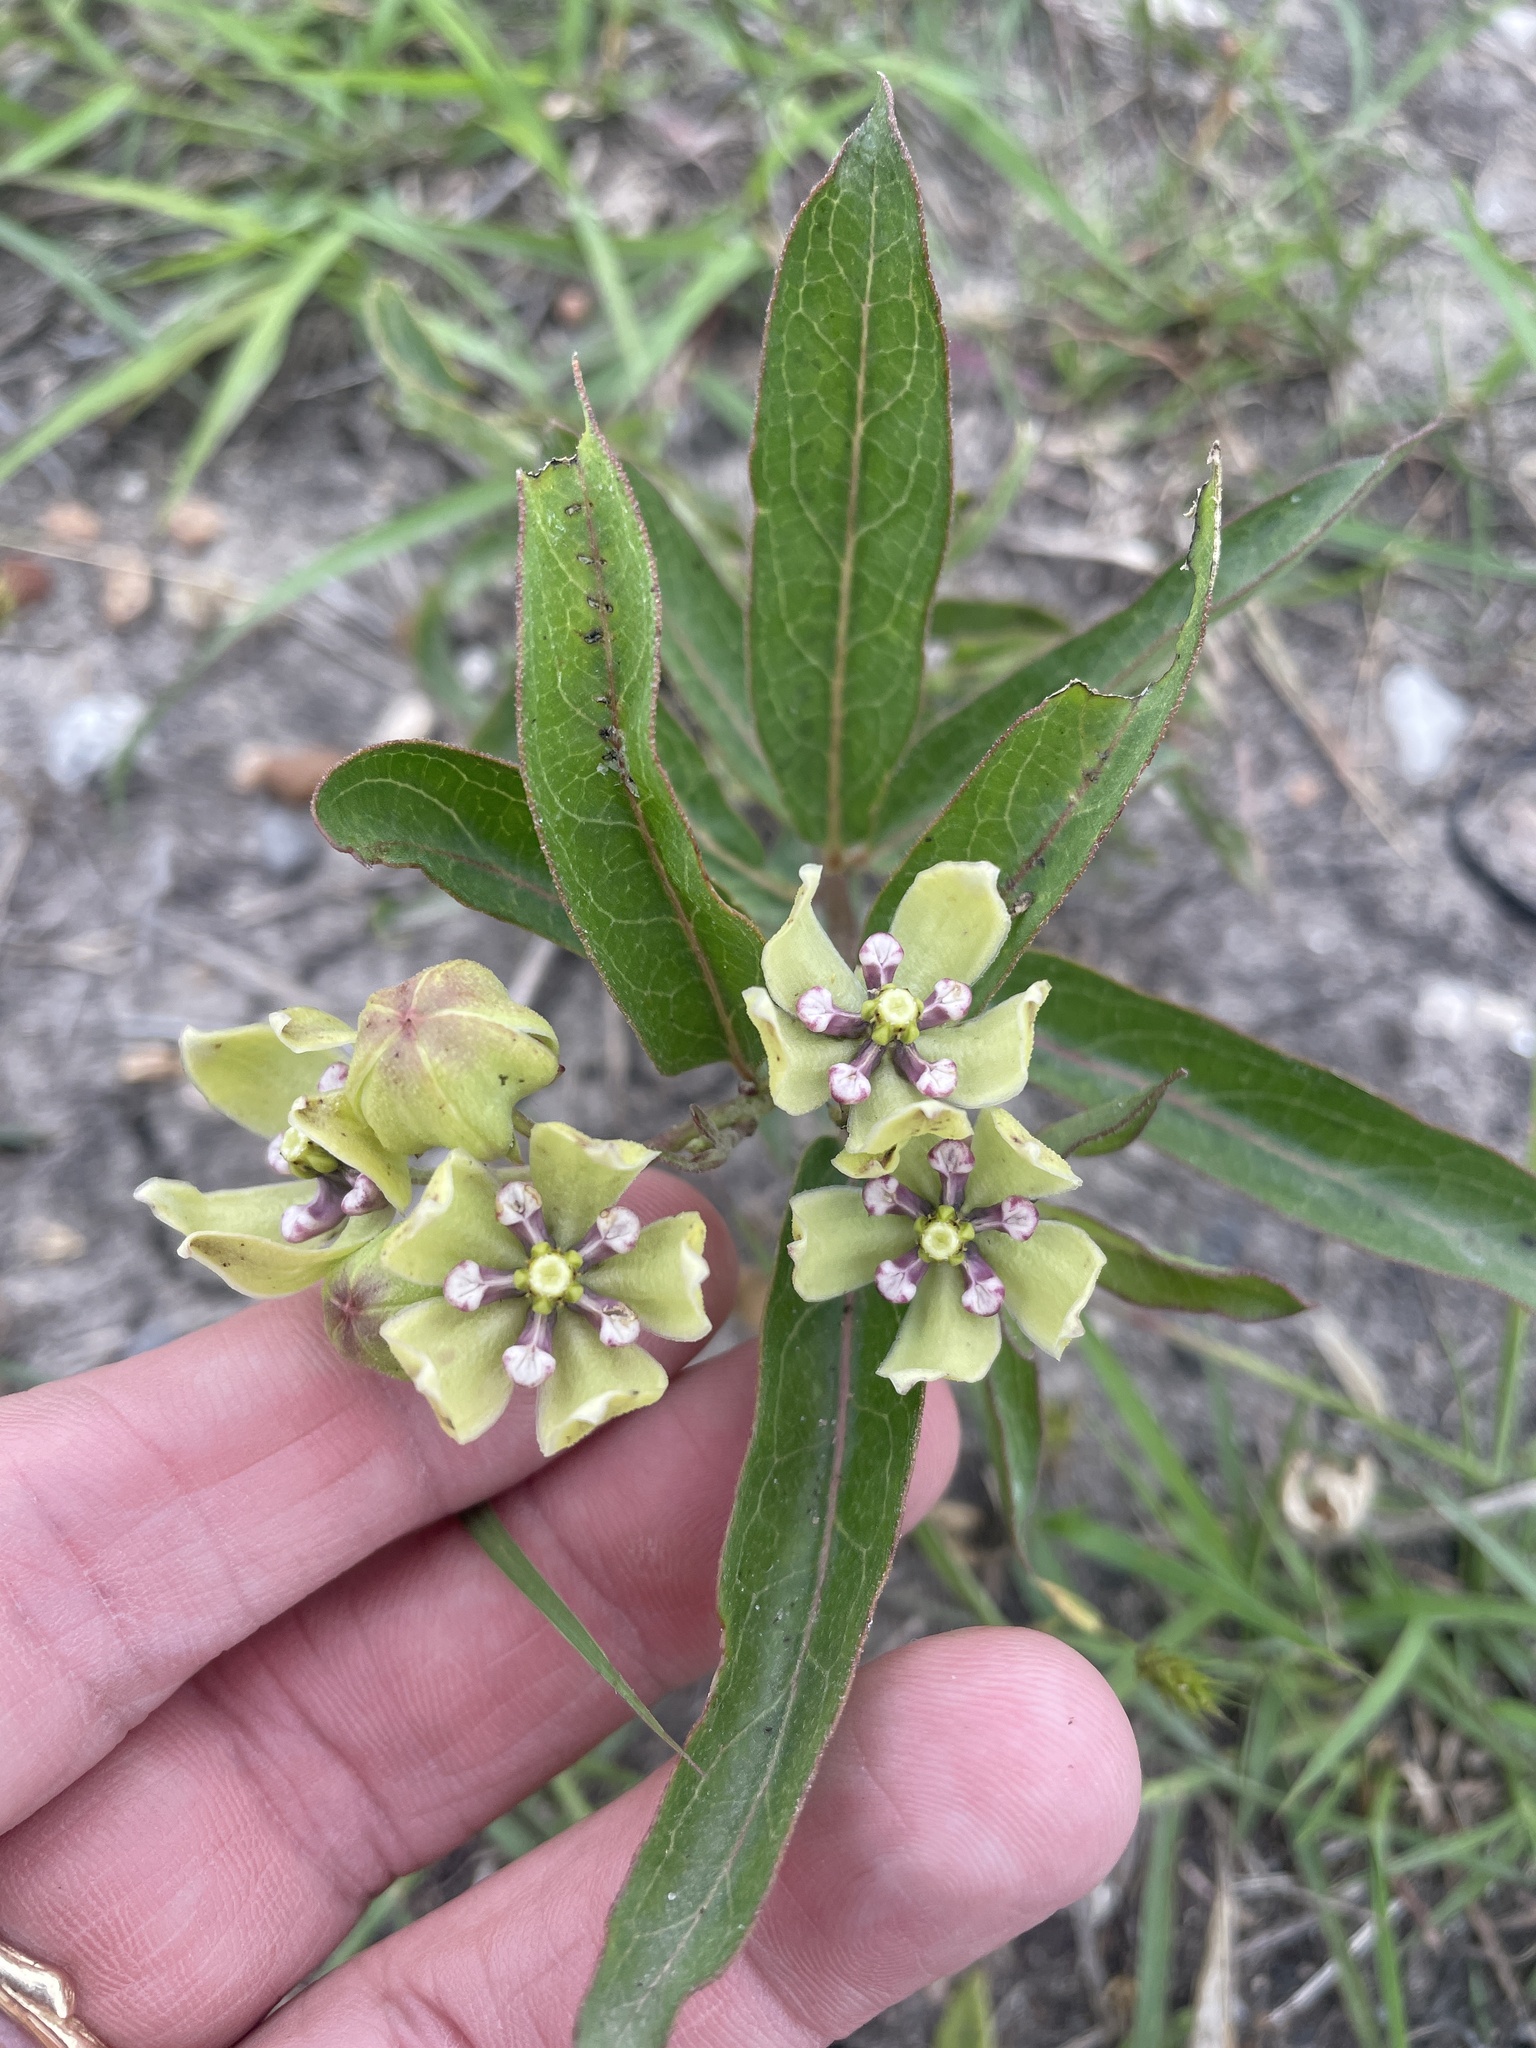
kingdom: Plantae
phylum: Tracheophyta
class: Magnoliopsida
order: Gentianales
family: Apocynaceae
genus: Asclepias
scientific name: Asclepias viridis
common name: Antelope-horns
